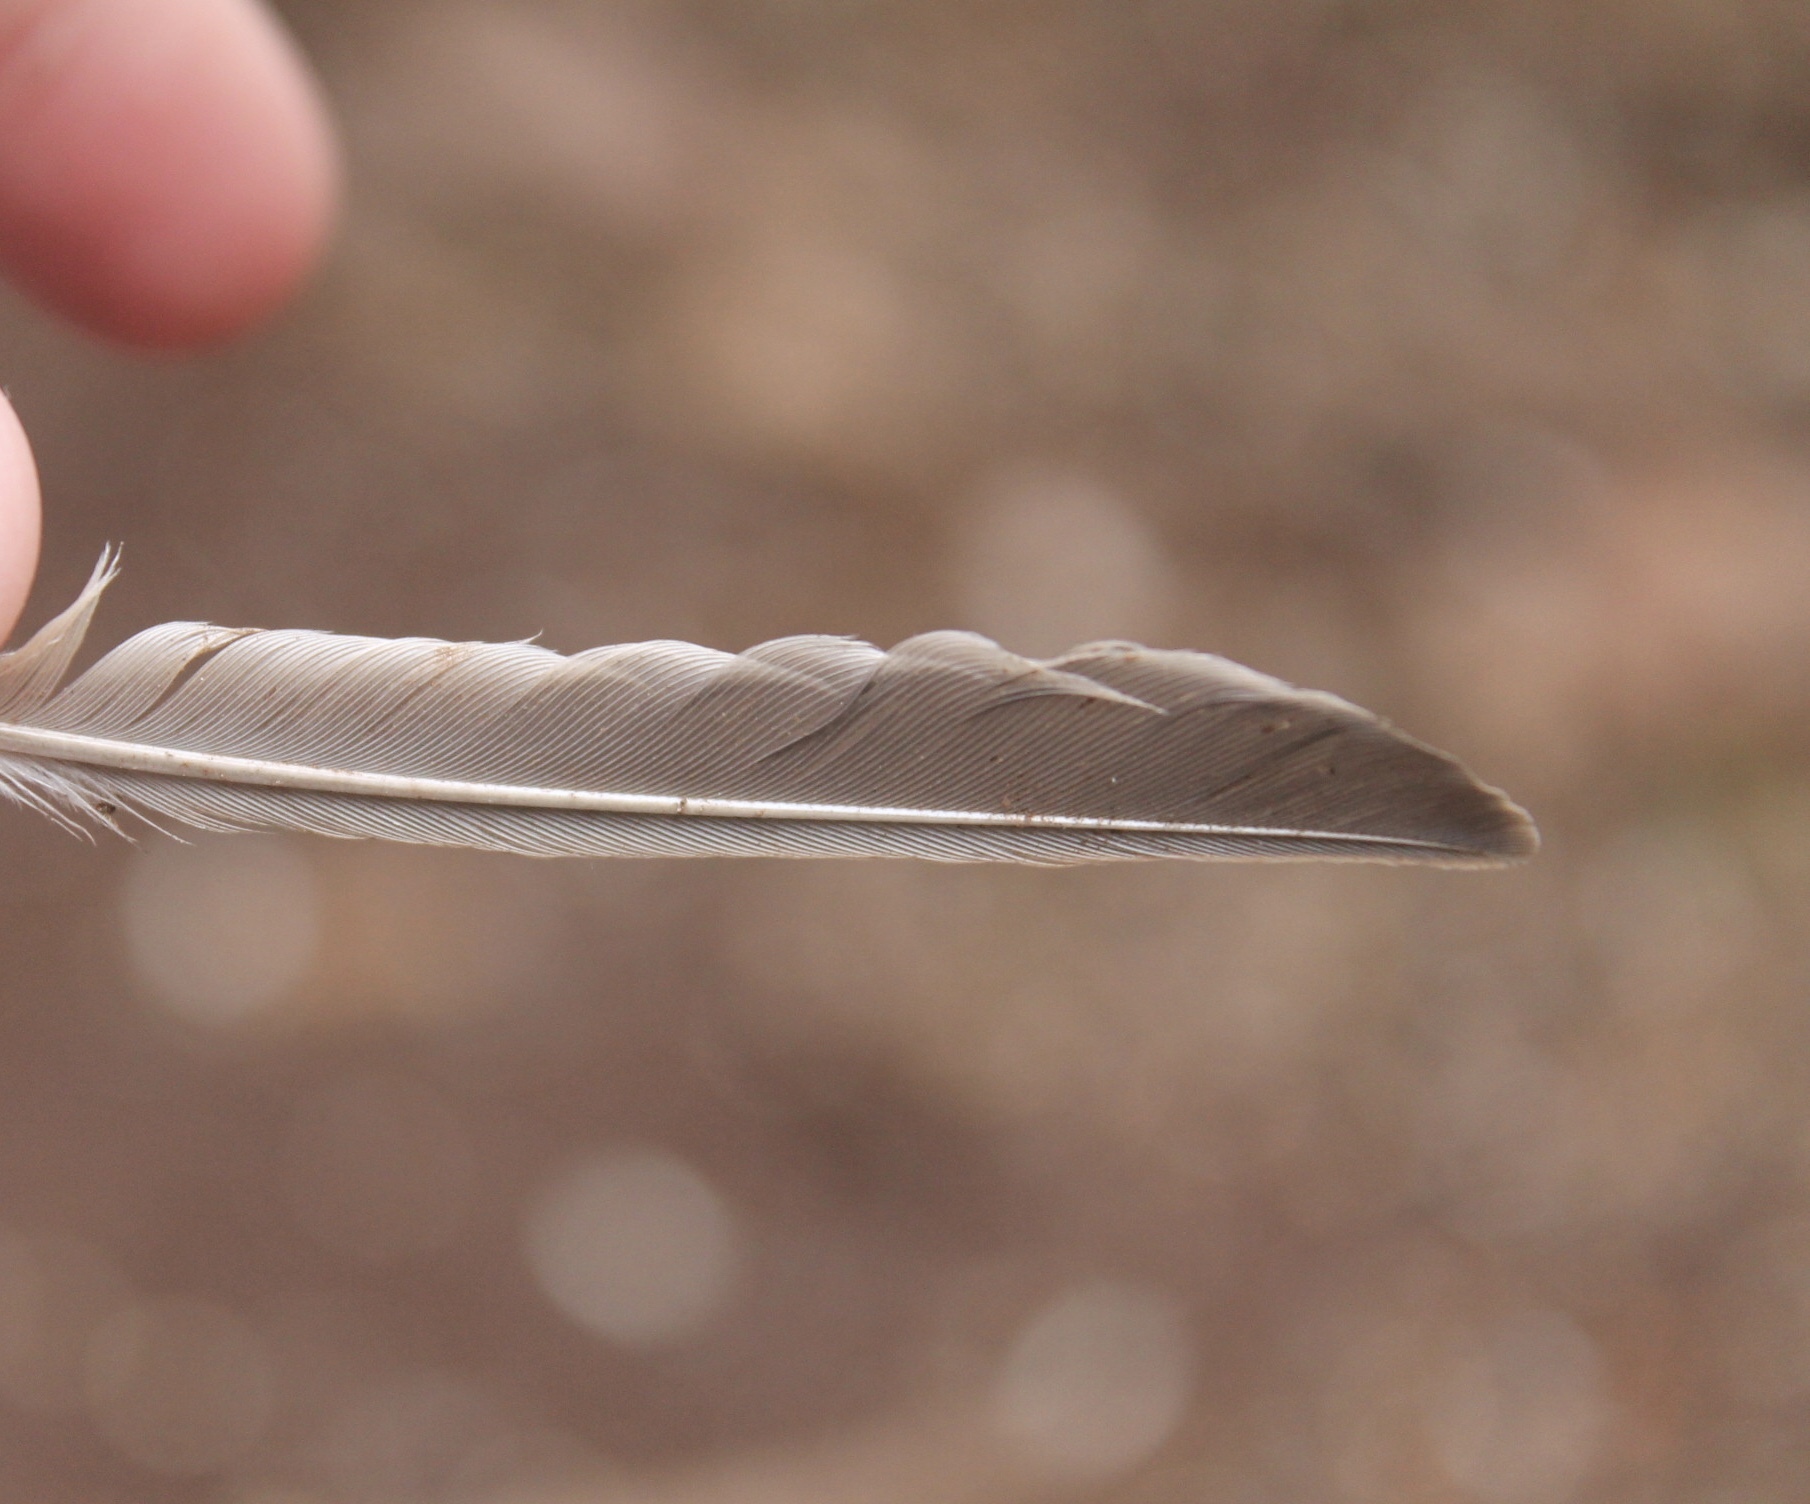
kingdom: Animalia
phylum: Chordata
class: Aves
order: Passeriformes
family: Passerellidae
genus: Zonotrichia
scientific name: Zonotrichia albicollis
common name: White-throated sparrow
